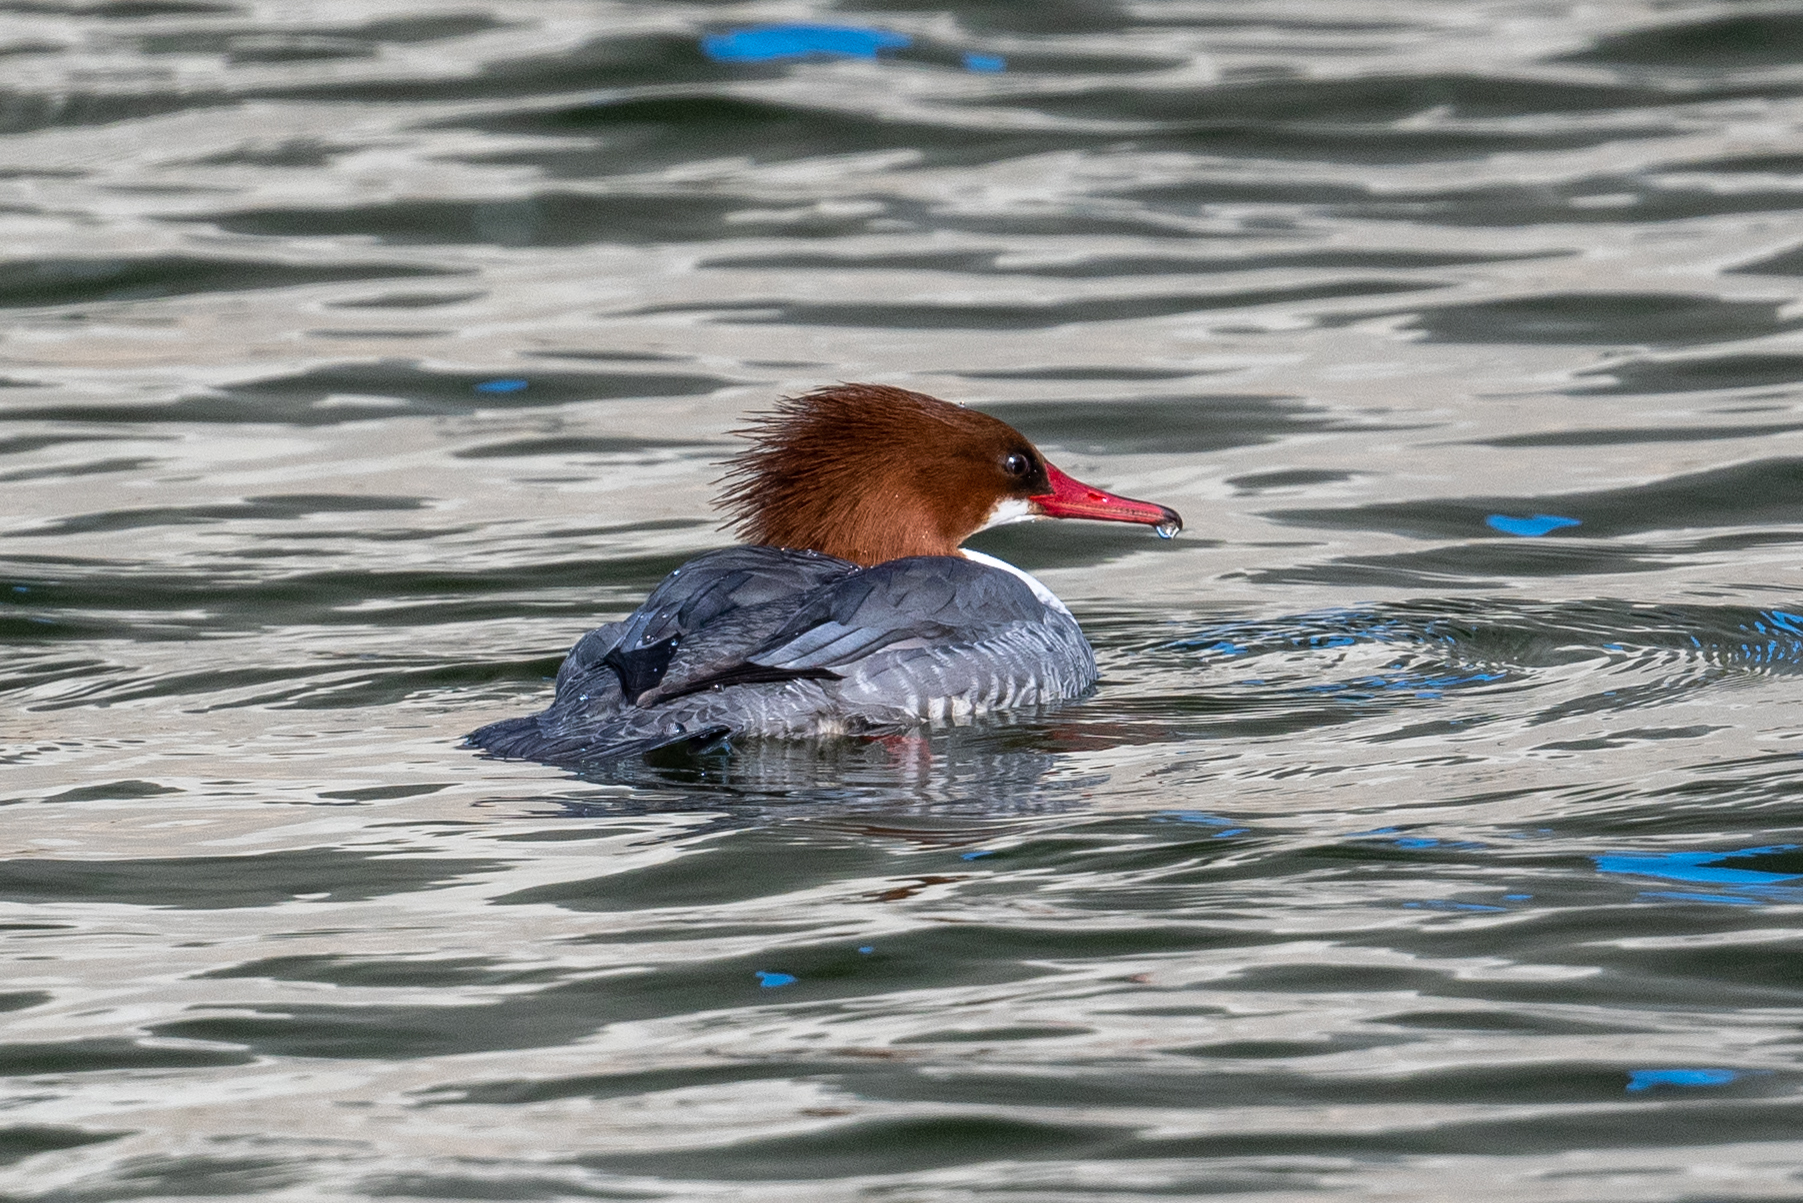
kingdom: Animalia
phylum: Chordata
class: Aves
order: Anseriformes
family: Anatidae
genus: Mergus
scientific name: Mergus merganser
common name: Common merganser
